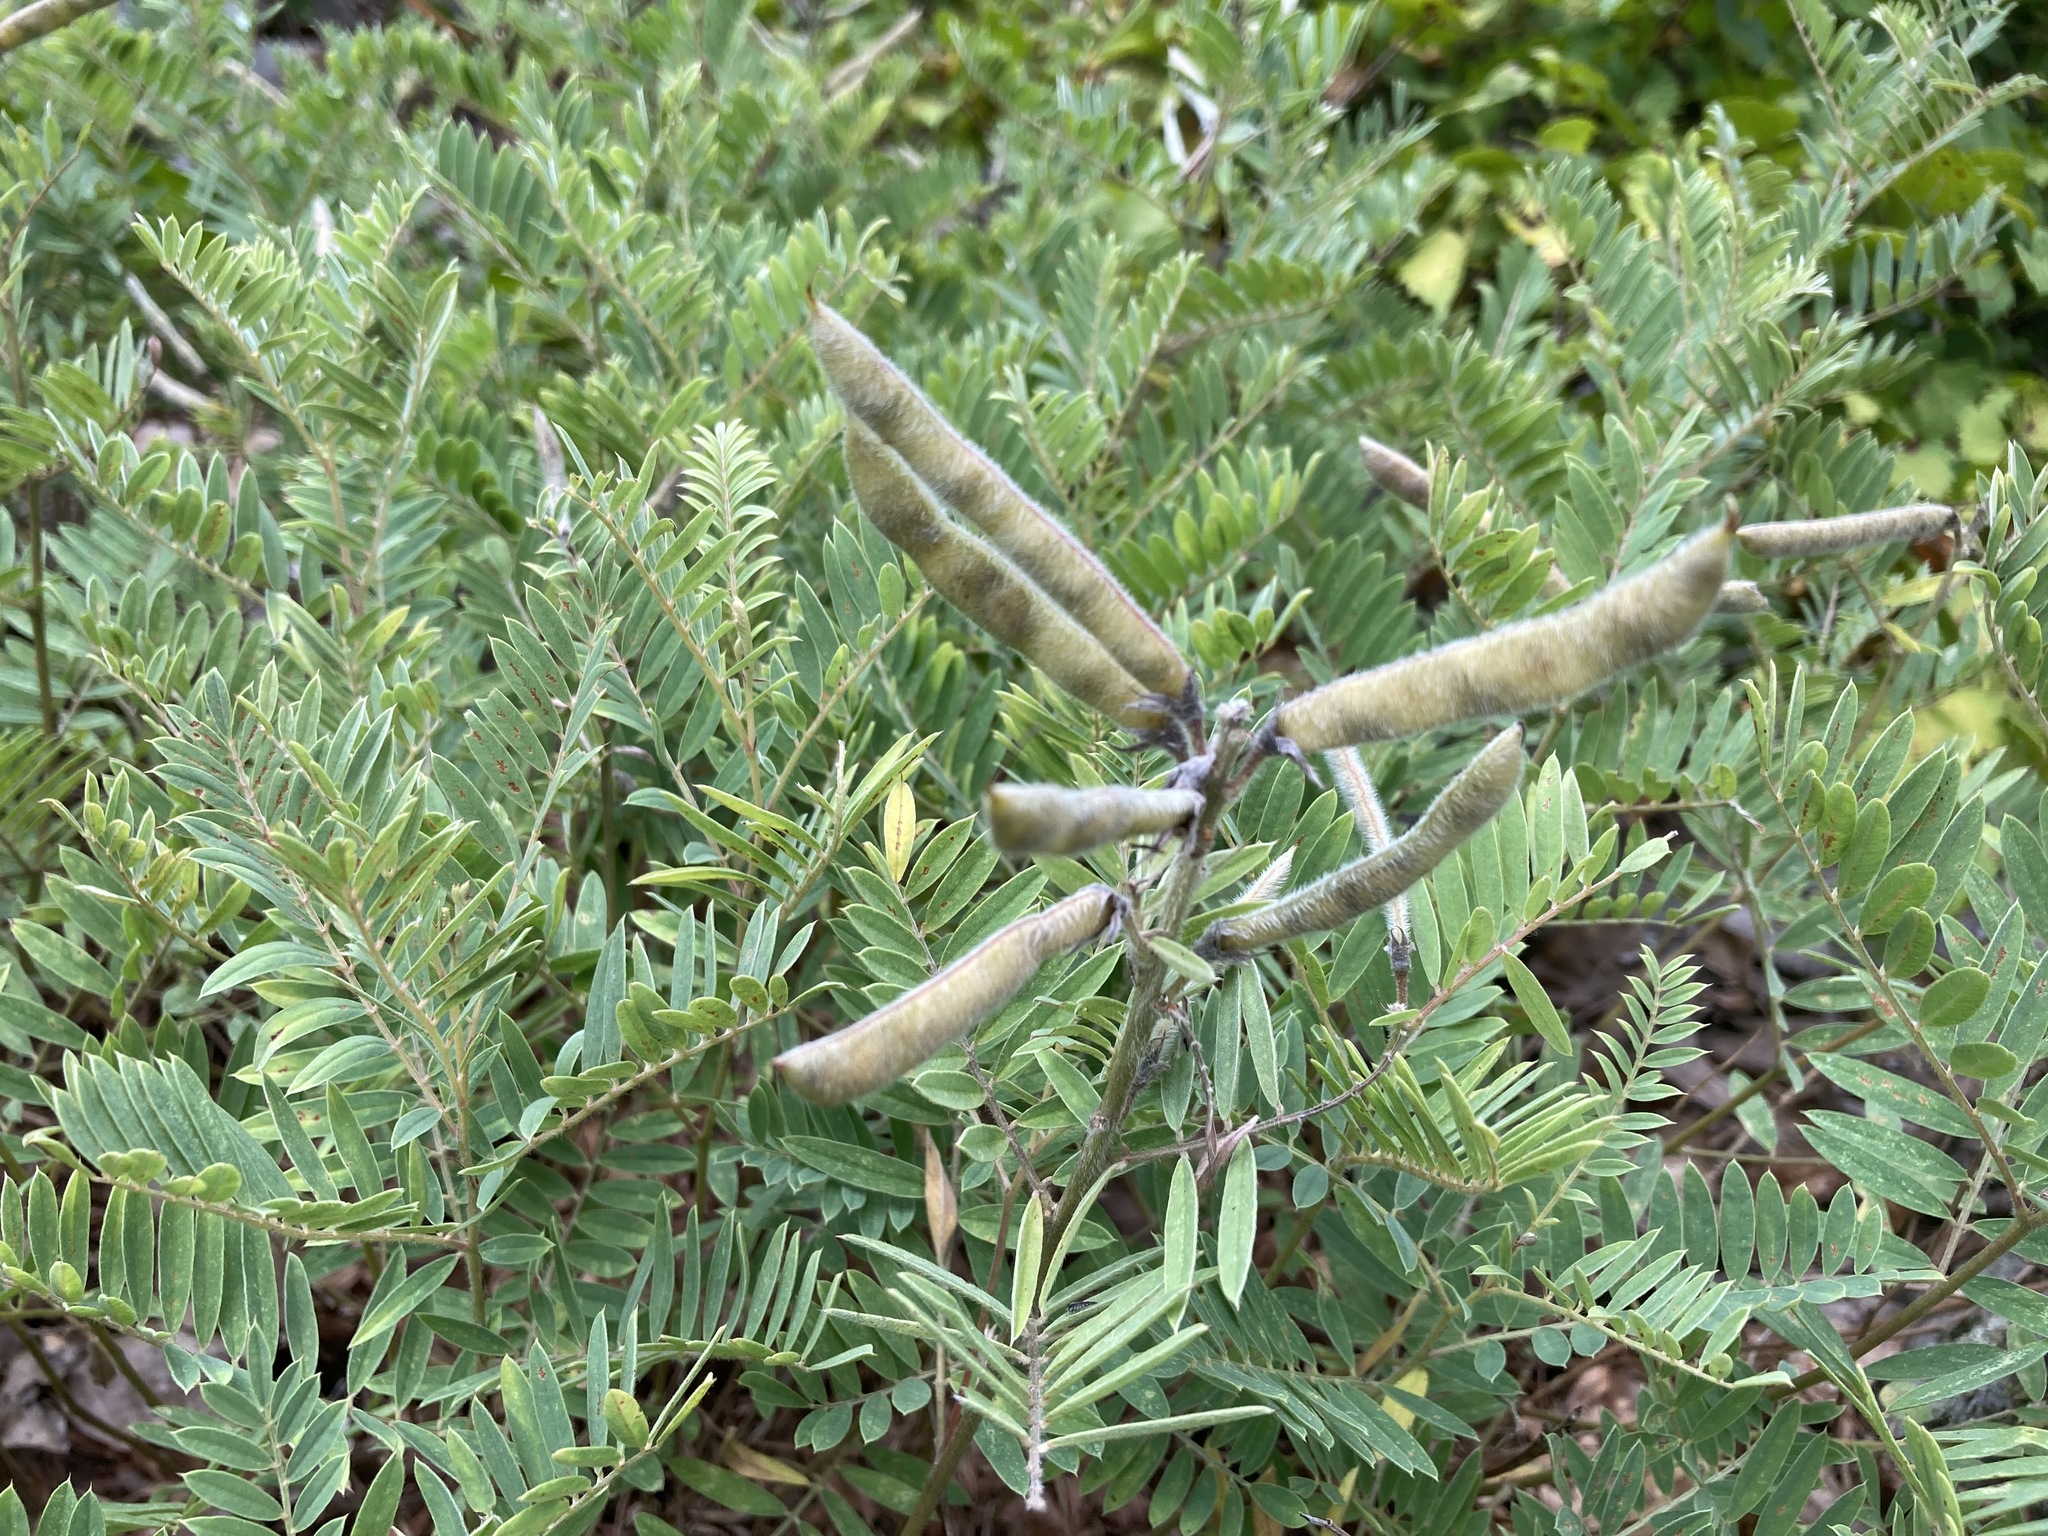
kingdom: Plantae
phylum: Tracheophyta
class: Magnoliopsida
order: Fabales
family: Fabaceae
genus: Tephrosia
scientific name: Tephrosia virginiana
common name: Rabbit-pea
